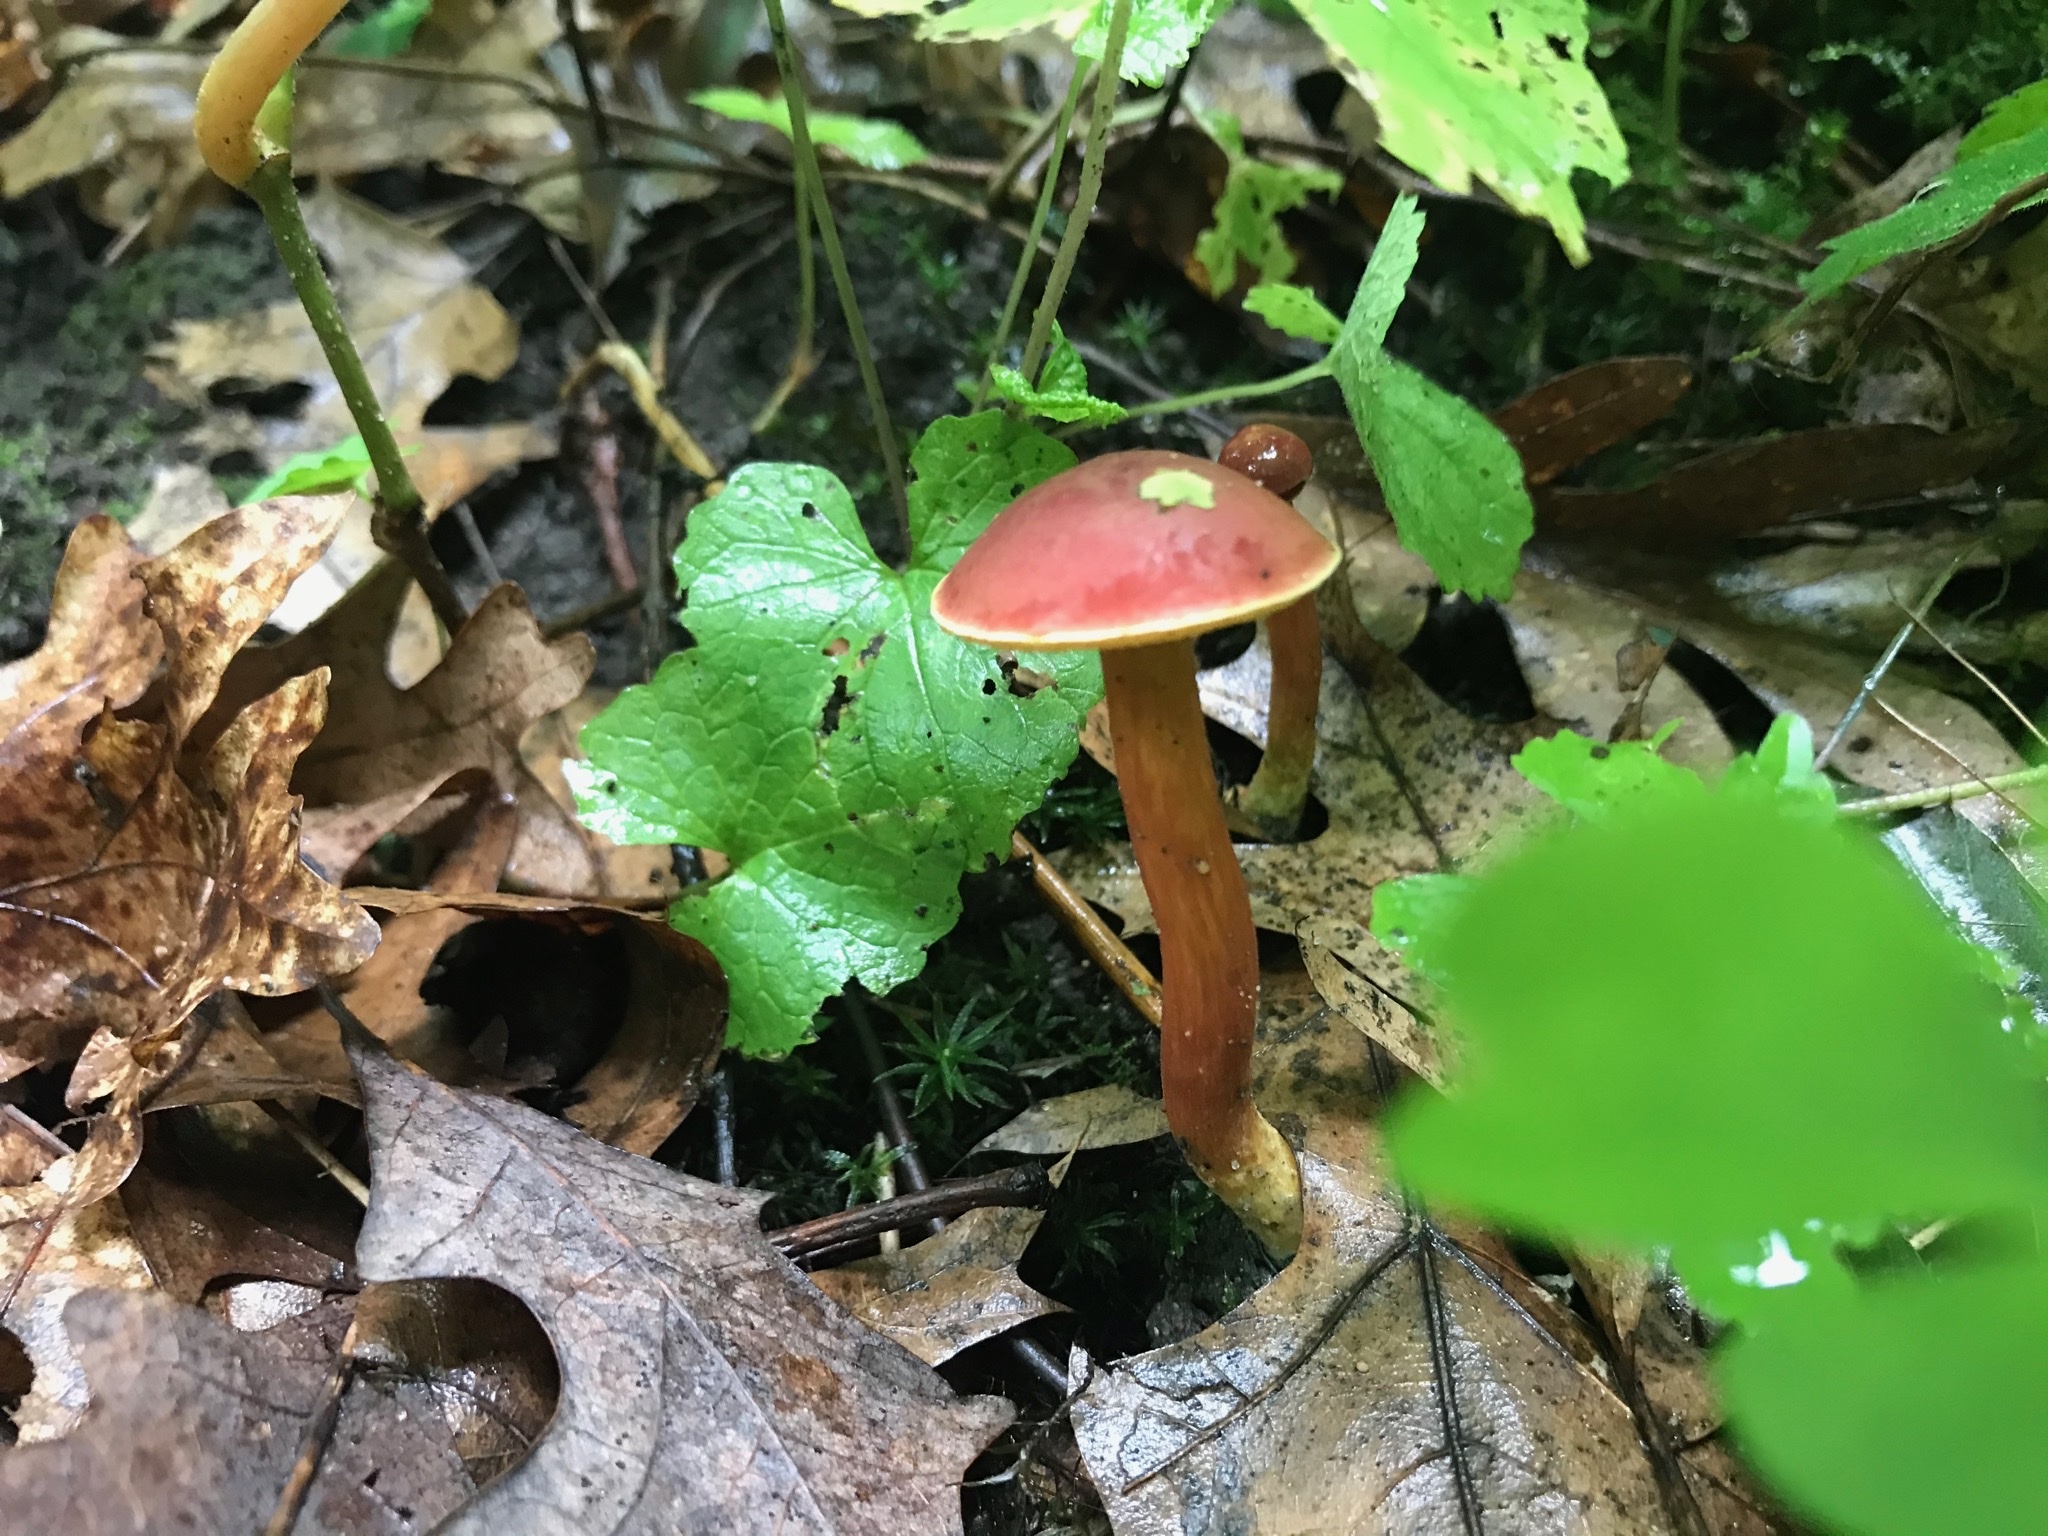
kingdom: Fungi
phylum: Basidiomycota
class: Agaricomycetes
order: Boletales
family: Boletaceae
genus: Hortiboletus
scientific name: Hortiboletus rubellus
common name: Ruby bolete
